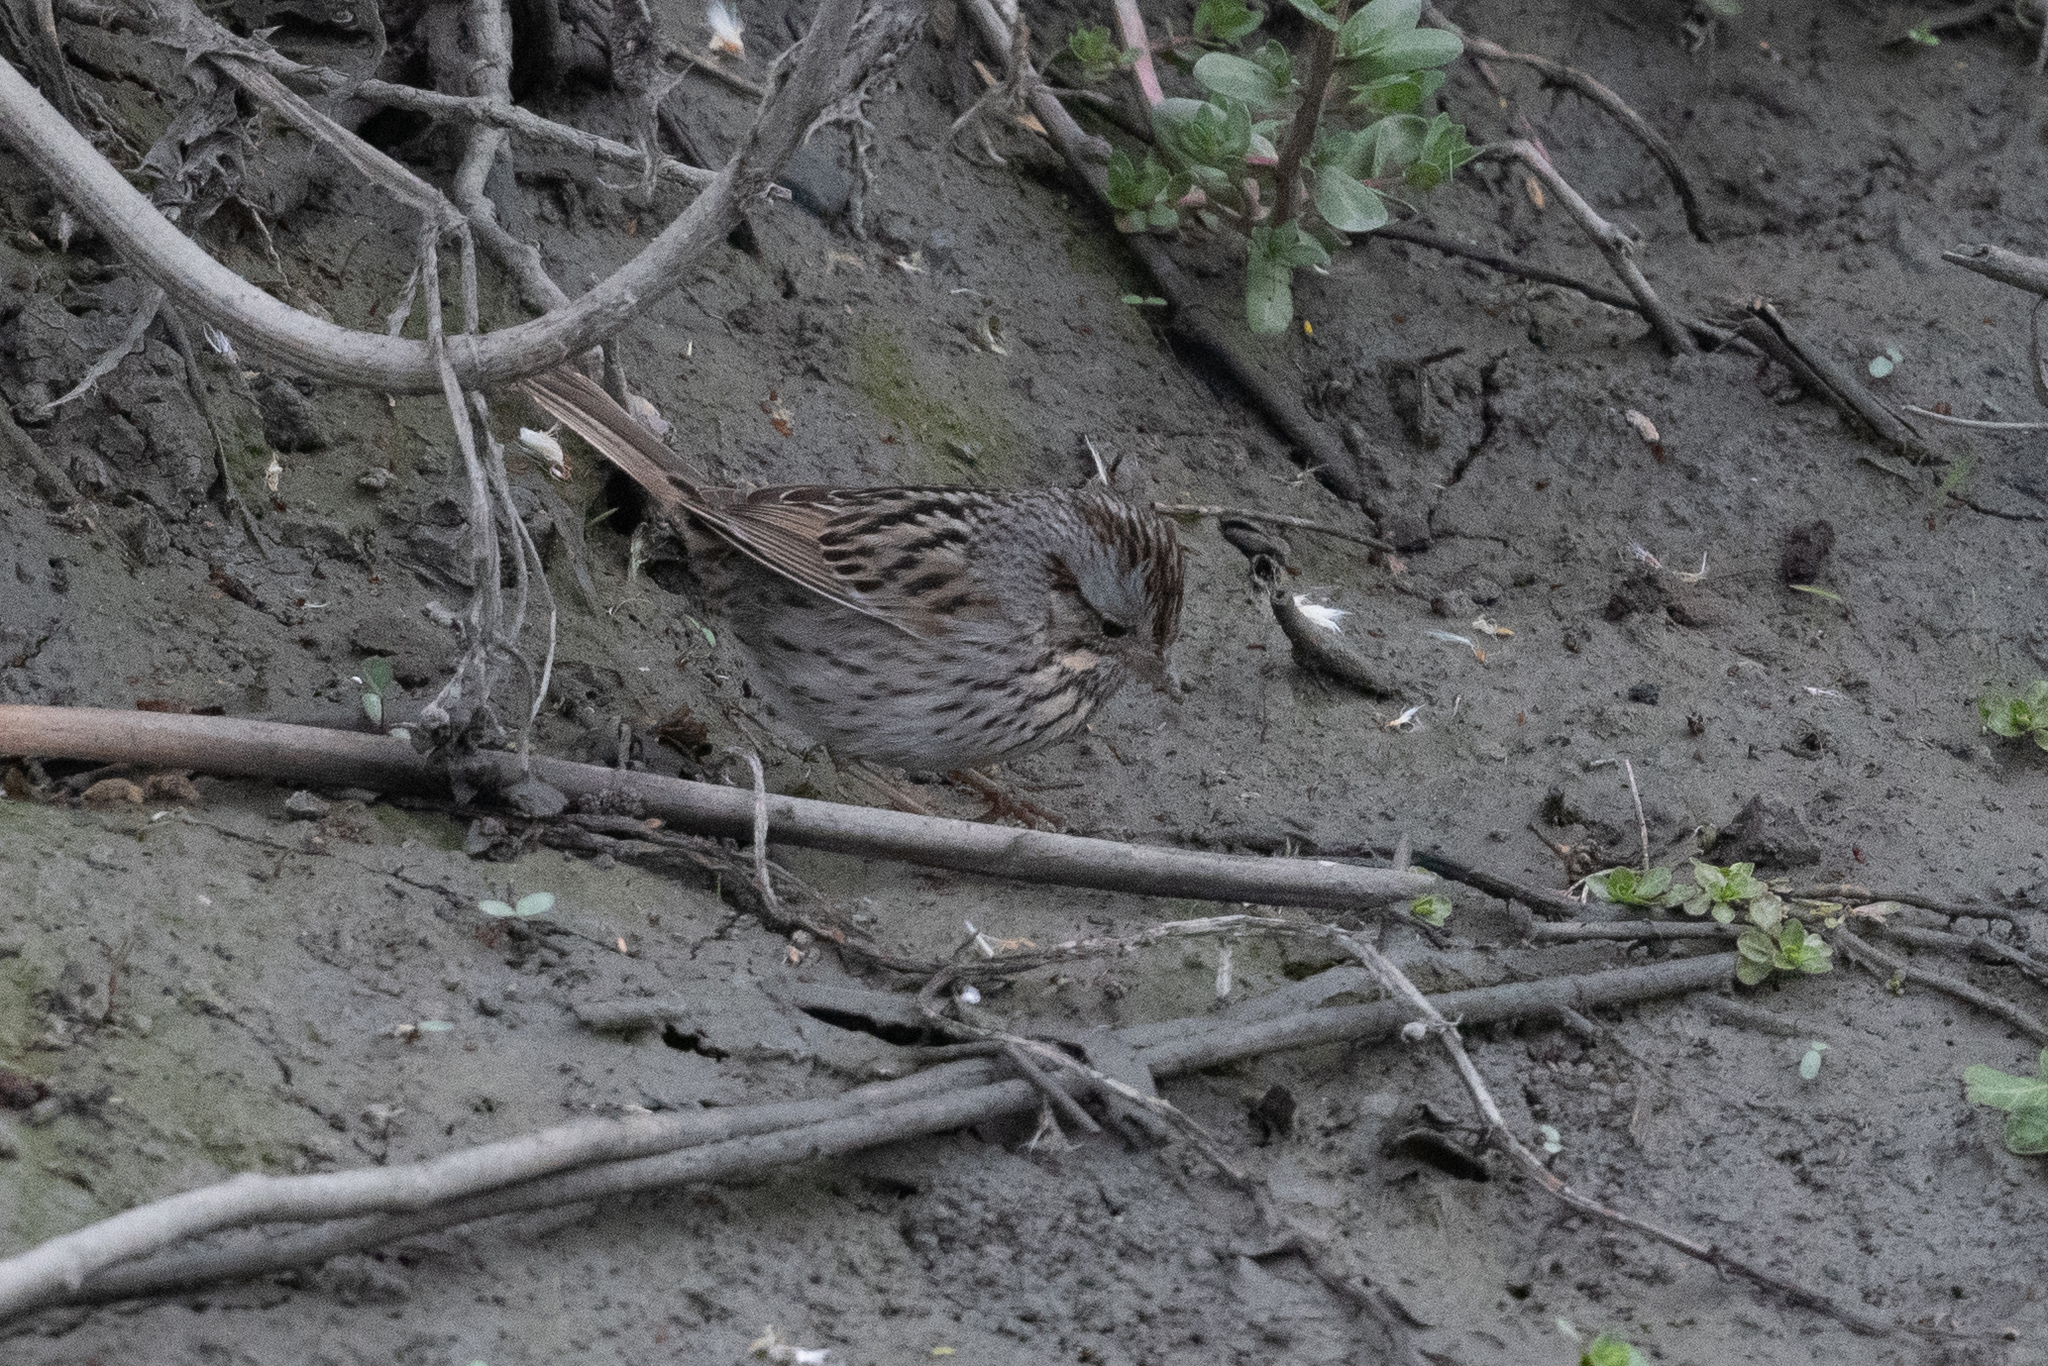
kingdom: Animalia
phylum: Chordata
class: Aves
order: Passeriformes
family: Passerellidae
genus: Melospiza
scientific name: Melospiza lincolnii
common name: Lincoln's sparrow
